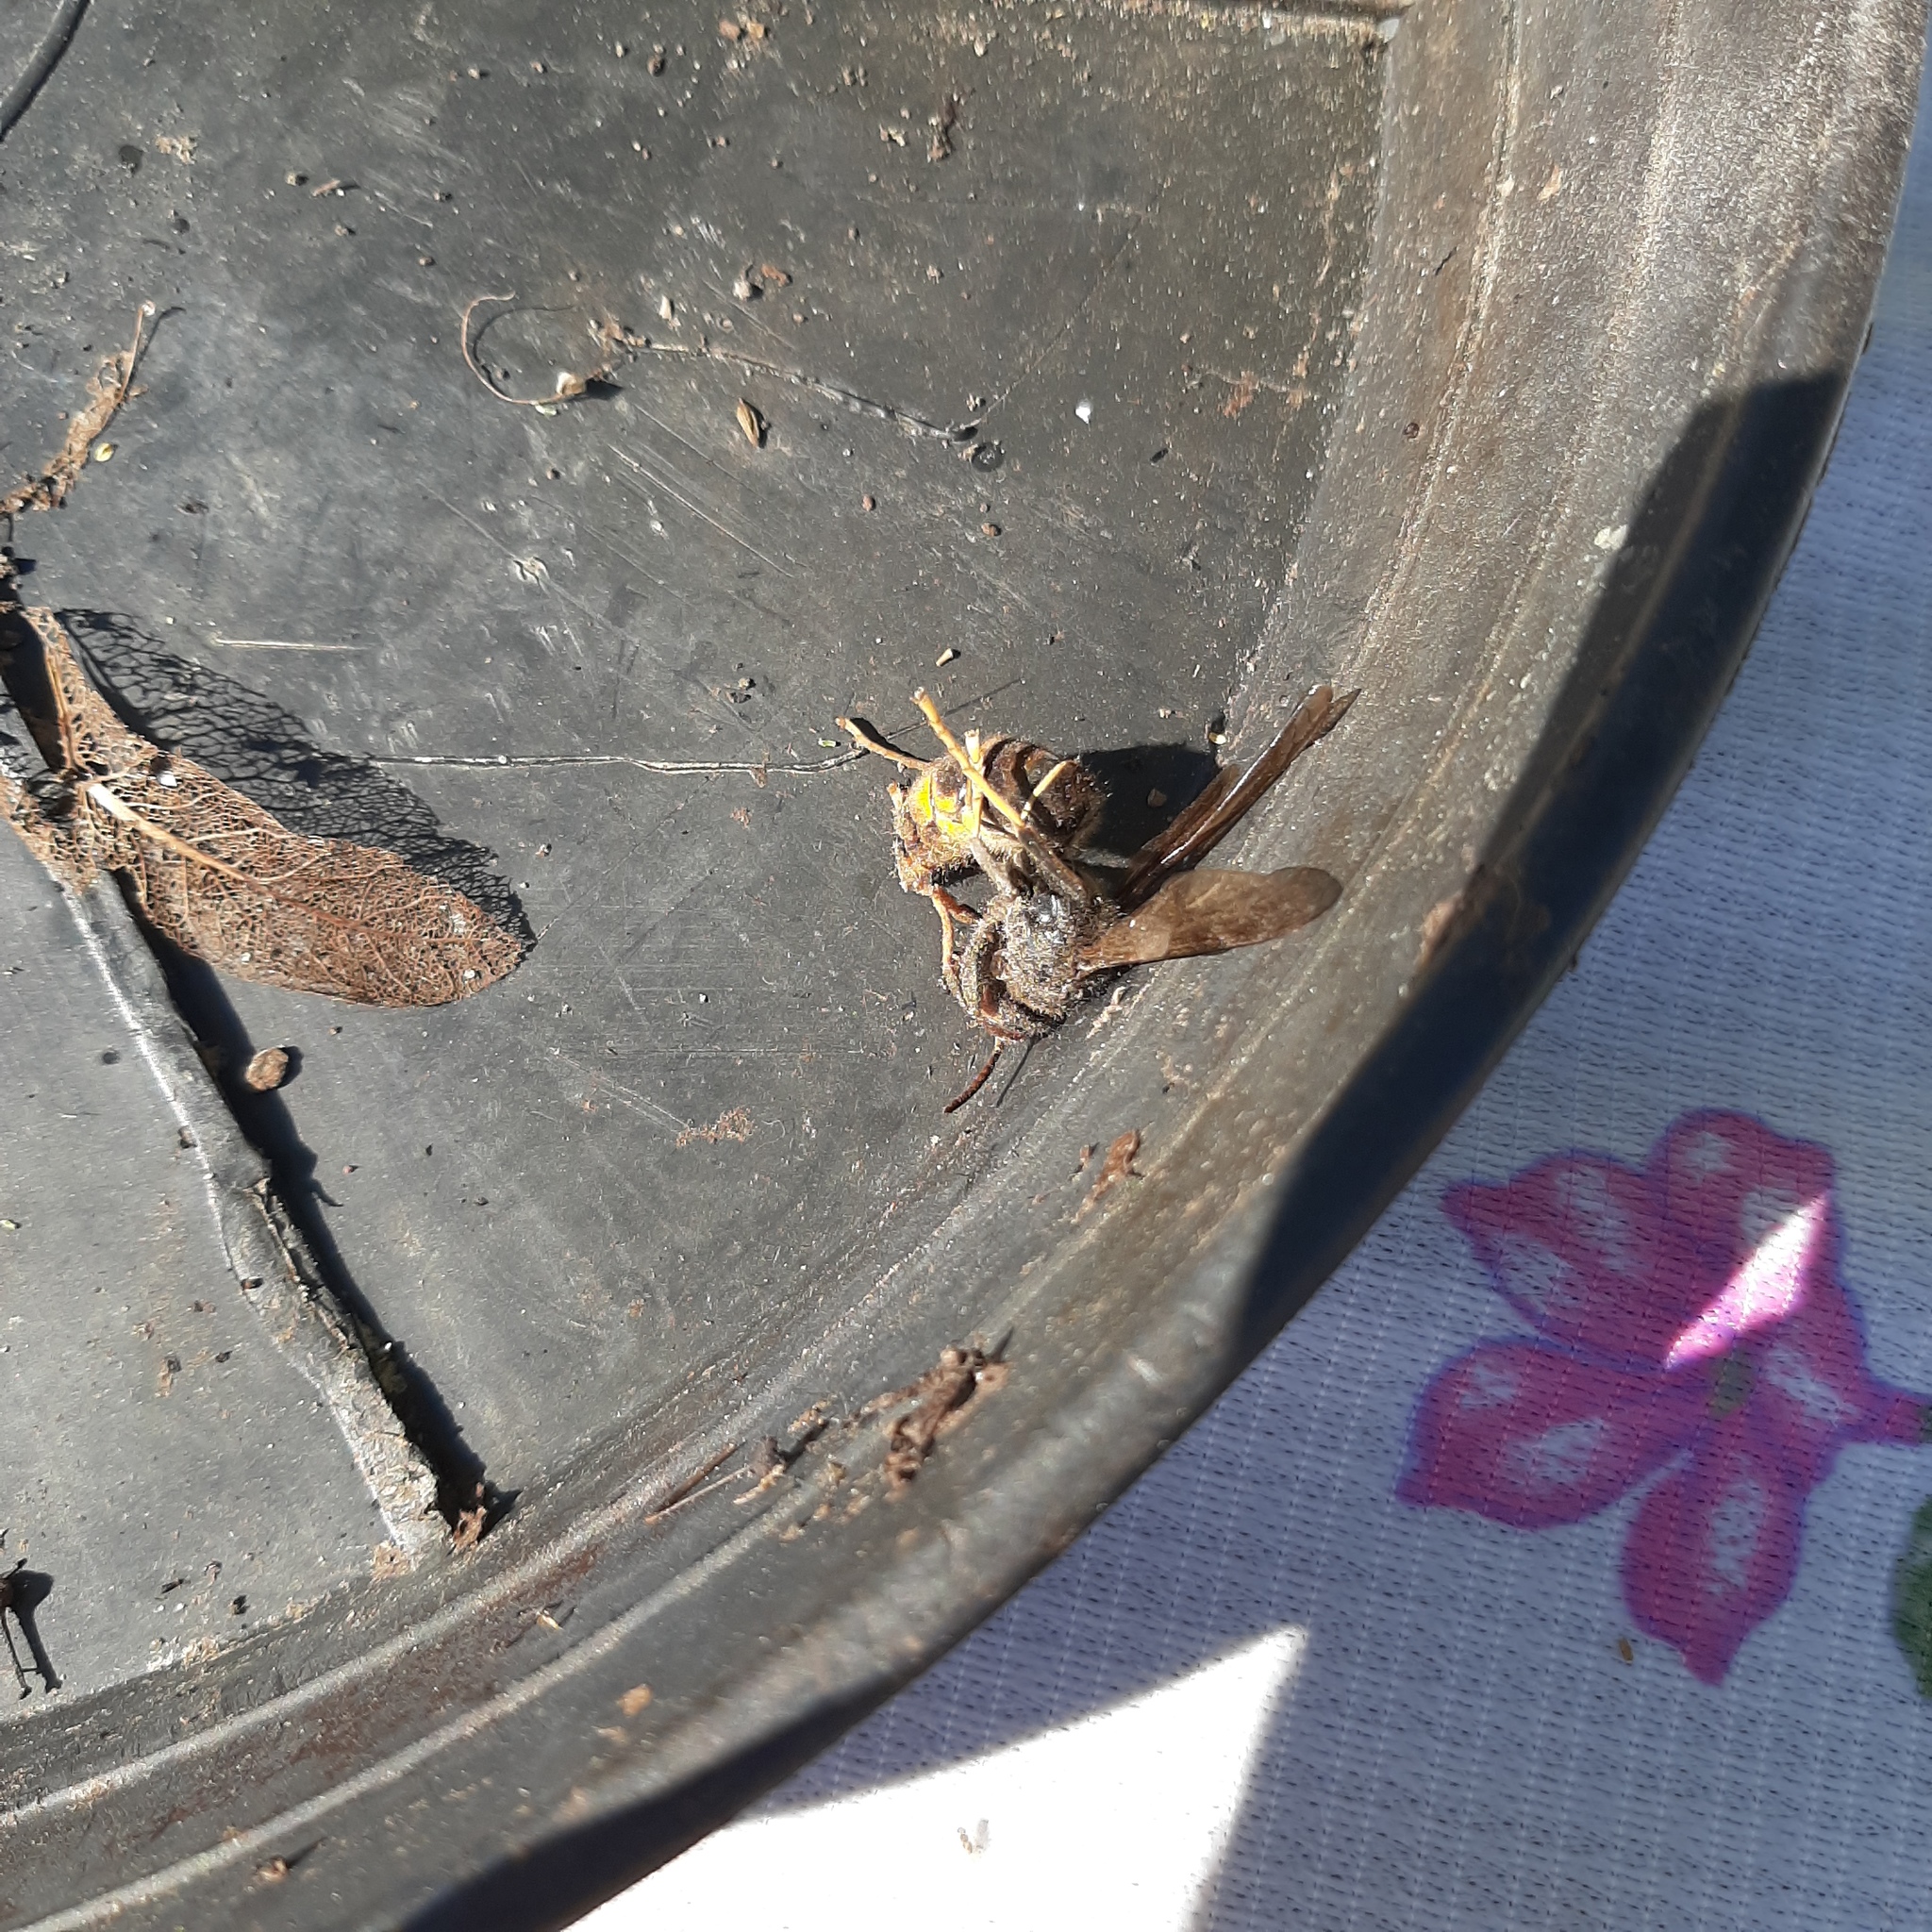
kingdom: Animalia
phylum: Arthropoda
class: Insecta
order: Hymenoptera
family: Vespidae
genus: Vespa
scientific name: Vespa velutina
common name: Asian hornet
